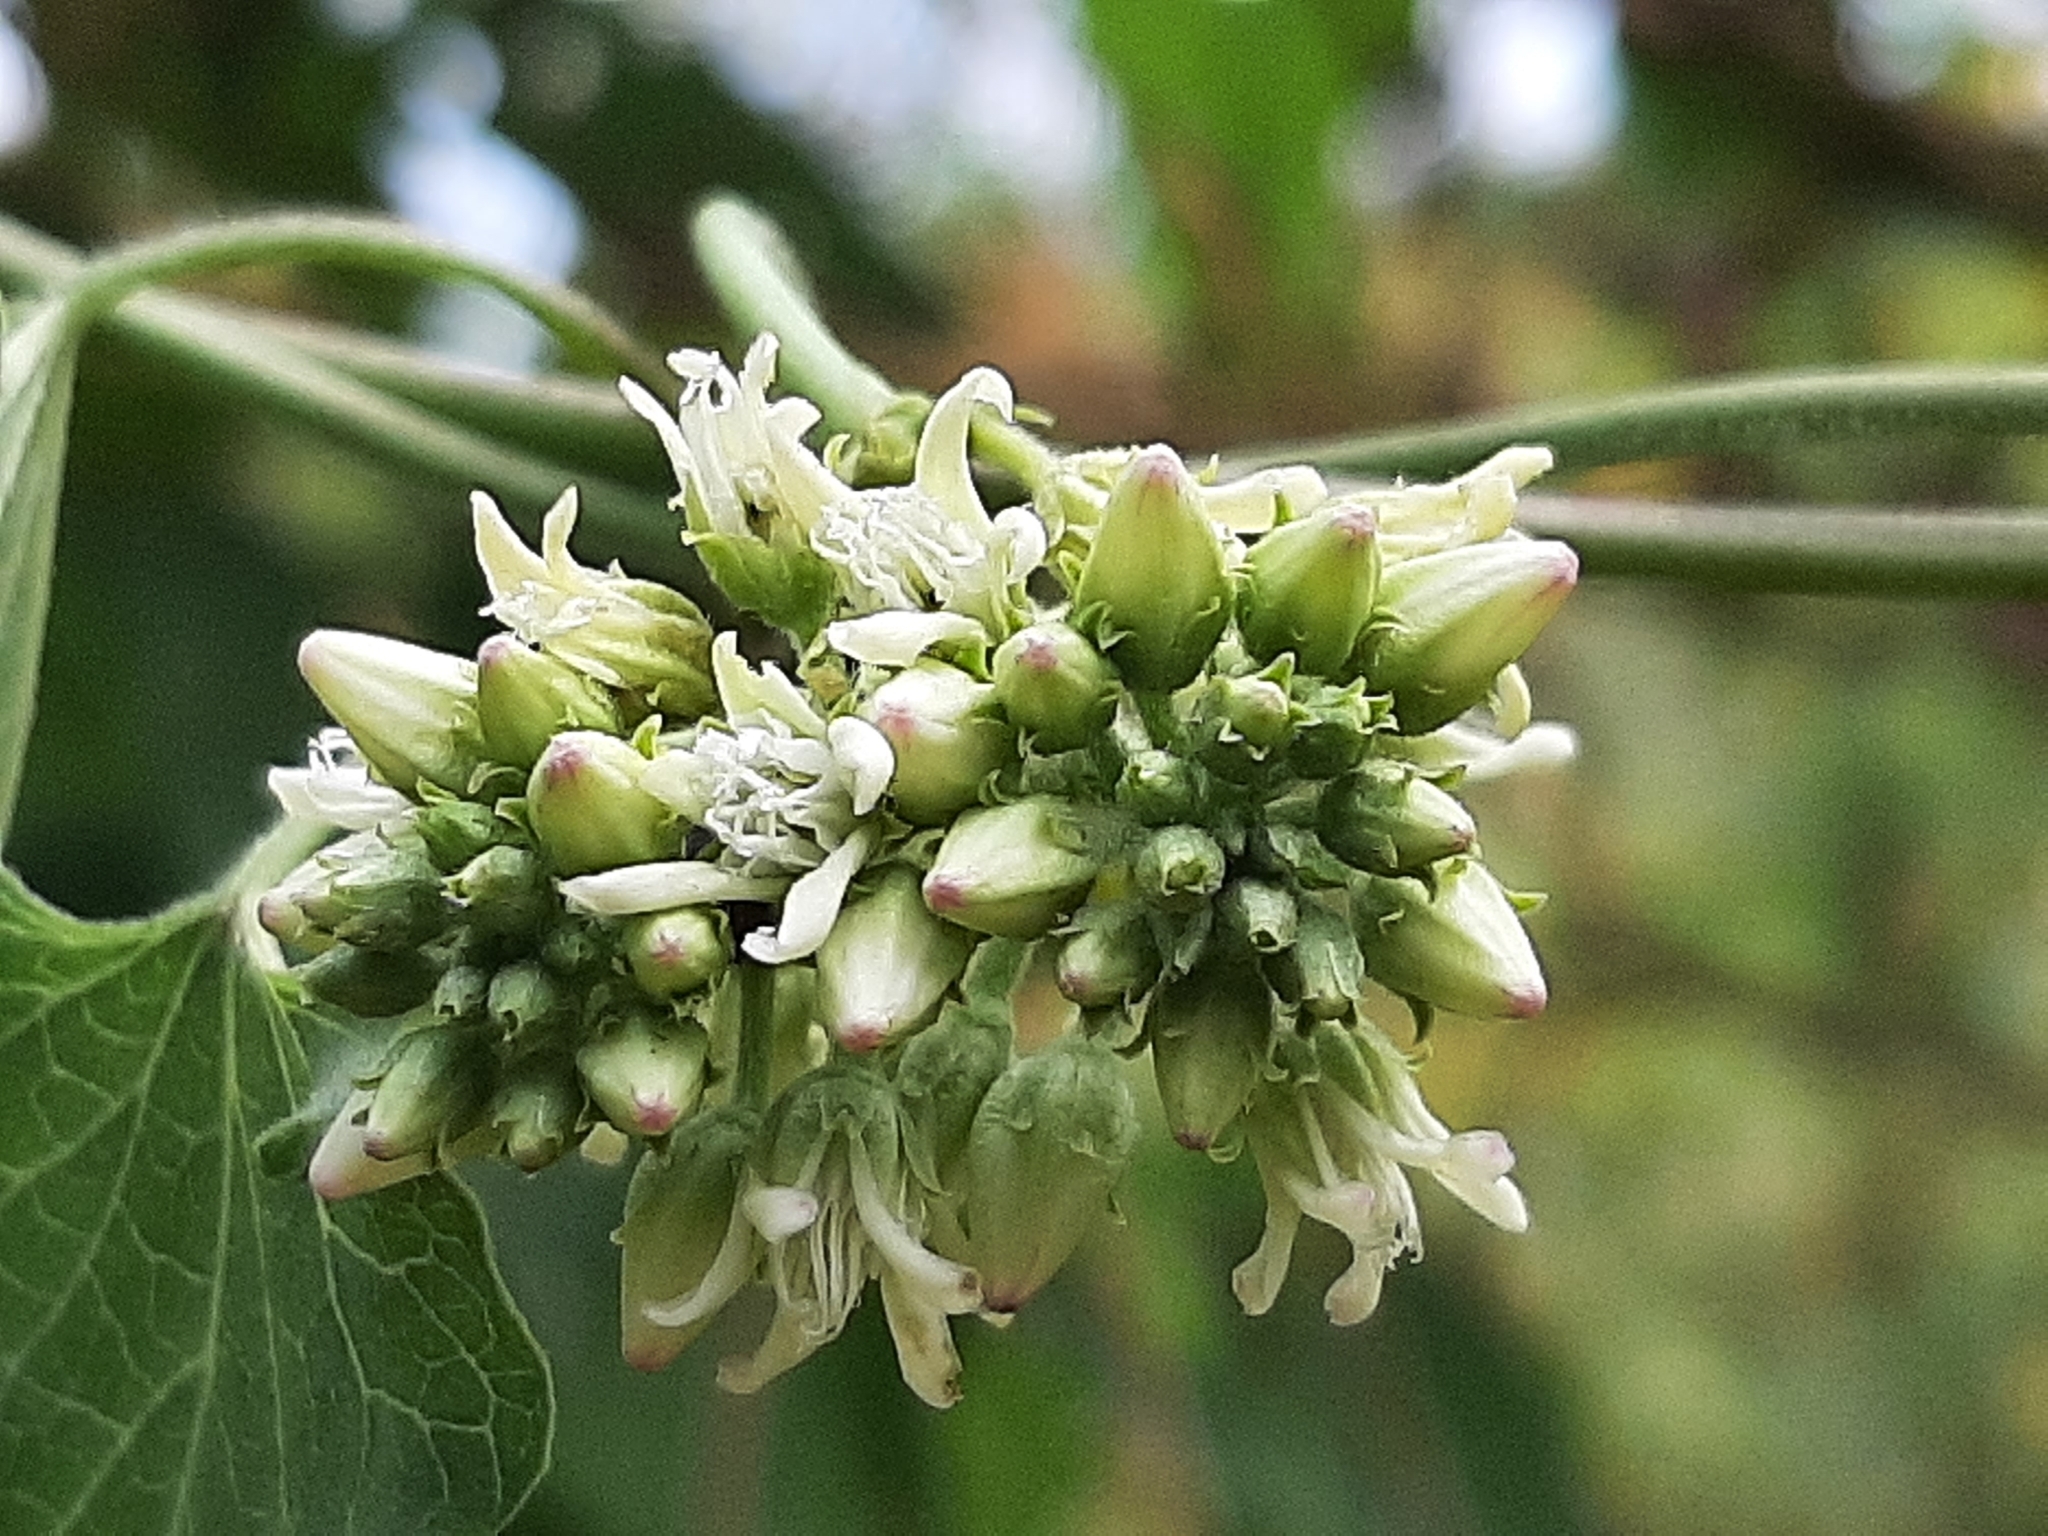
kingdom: Plantae
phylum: Tracheophyta
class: Magnoliopsida
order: Gentianales
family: Apocynaceae
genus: Cynanchum
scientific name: Cynanchum laeve
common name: Sandvine
